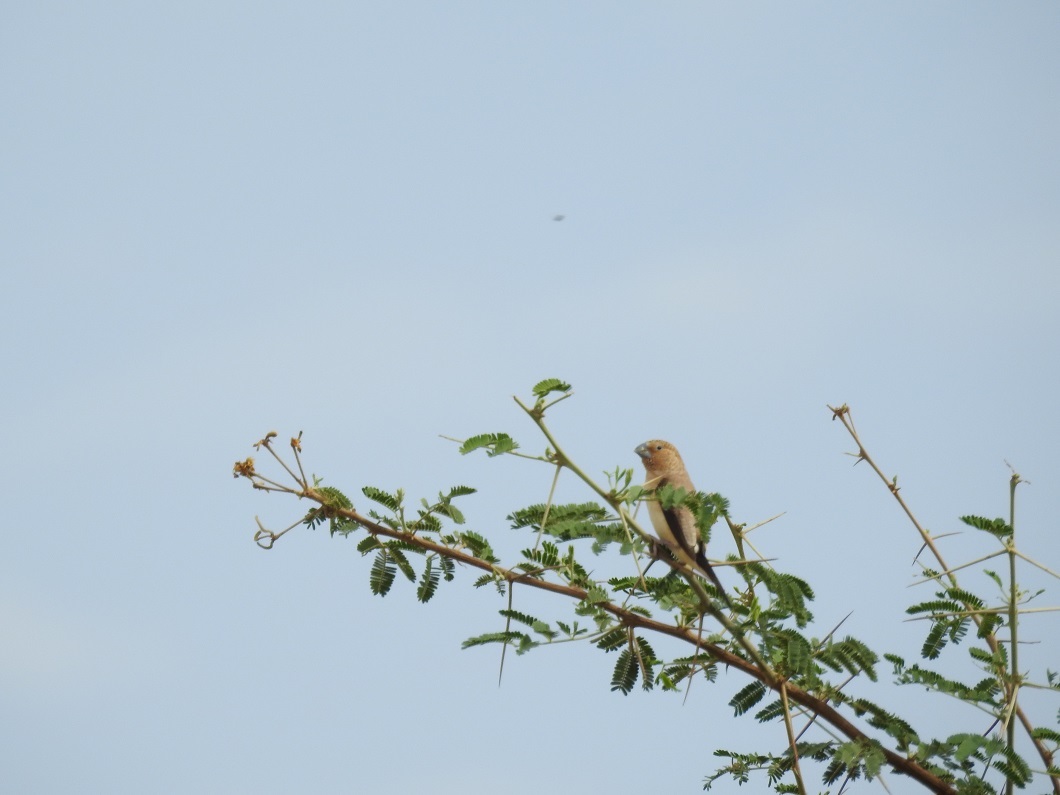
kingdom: Animalia
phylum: Chordata
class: Aves
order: Passeriformes
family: Estrildidae
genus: Euodice
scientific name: Euodice cantans
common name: African silverbill
